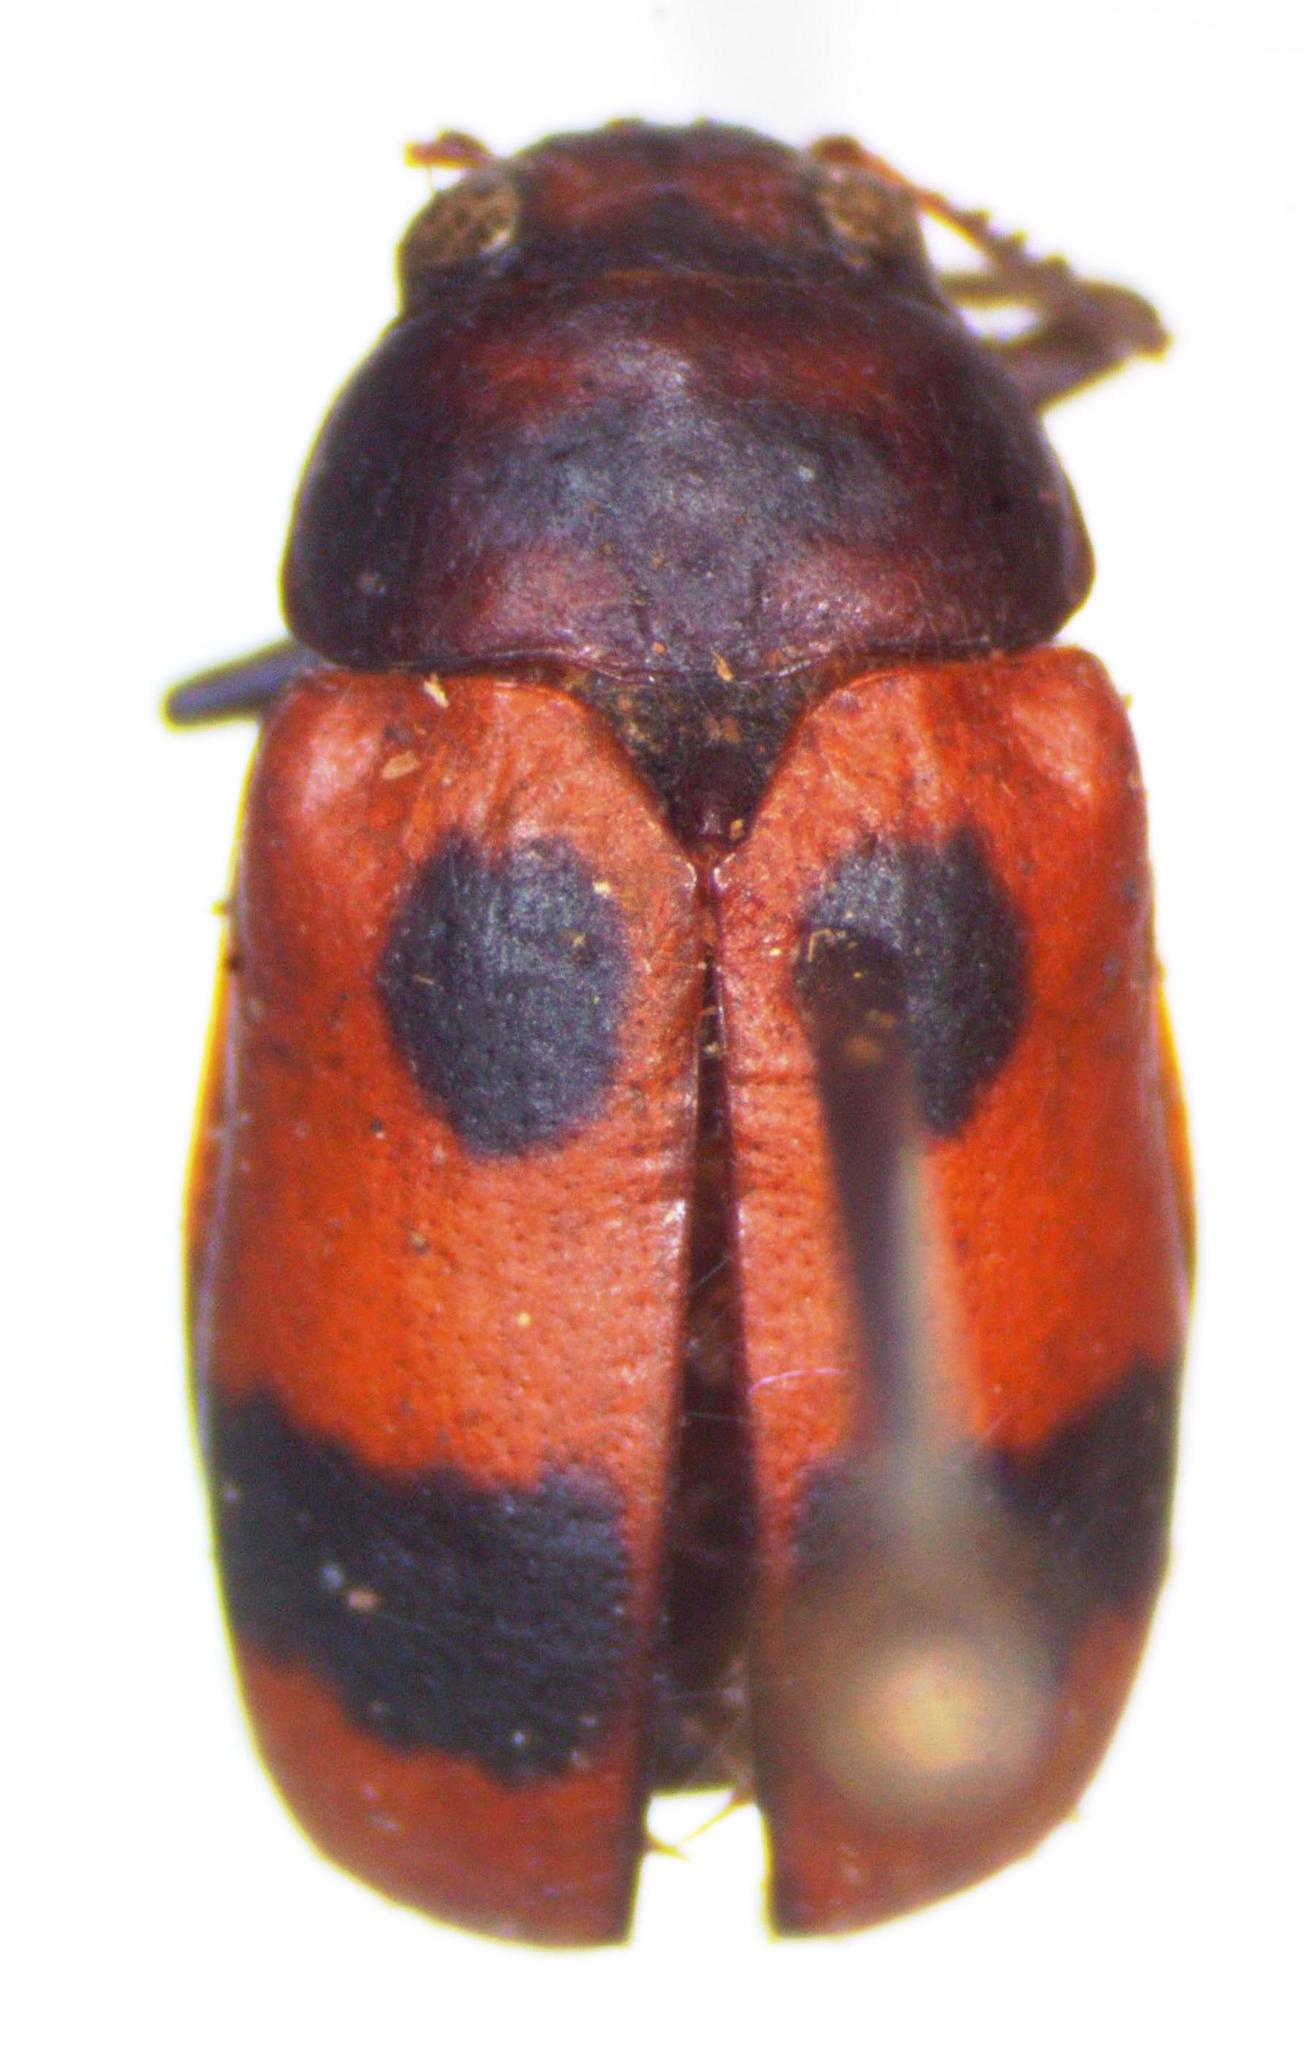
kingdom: Animalia
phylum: Arthropoda
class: Insecta
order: Coleoptera
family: Chrysomelidae
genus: Anomoea
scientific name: Anomoea rufifrons
